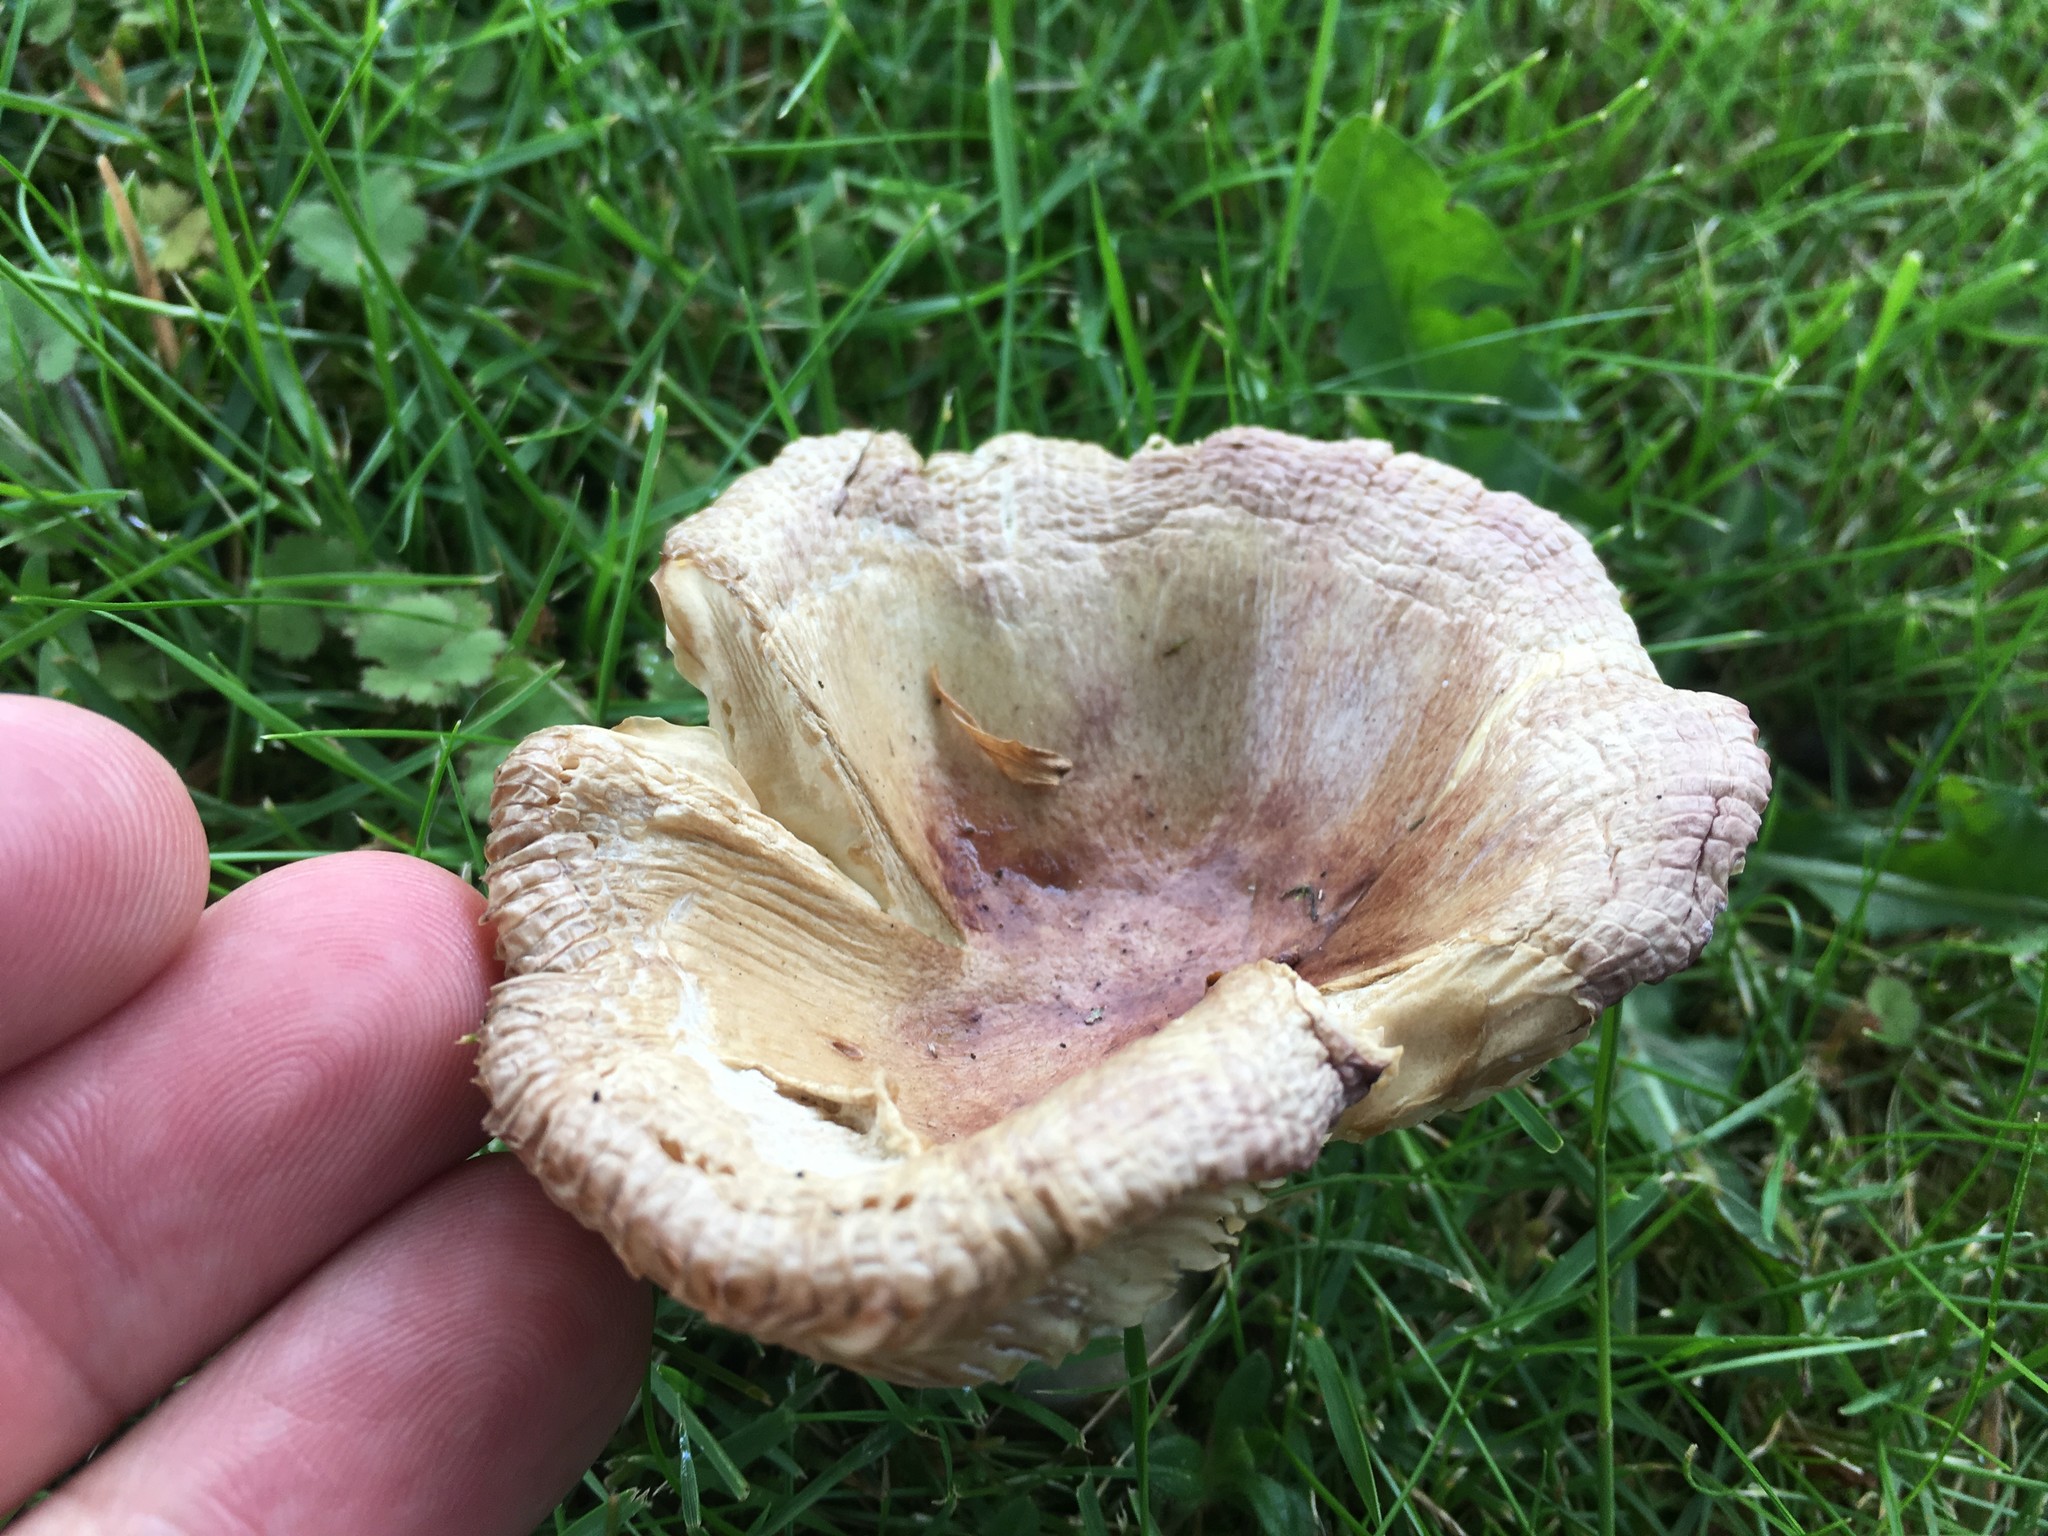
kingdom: Fungi
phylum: Basidiomycota
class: Agaricomycetes
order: Russulales
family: Russulaceae
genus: Russula
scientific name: Russula nitida
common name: Purple swamp brittlegill
